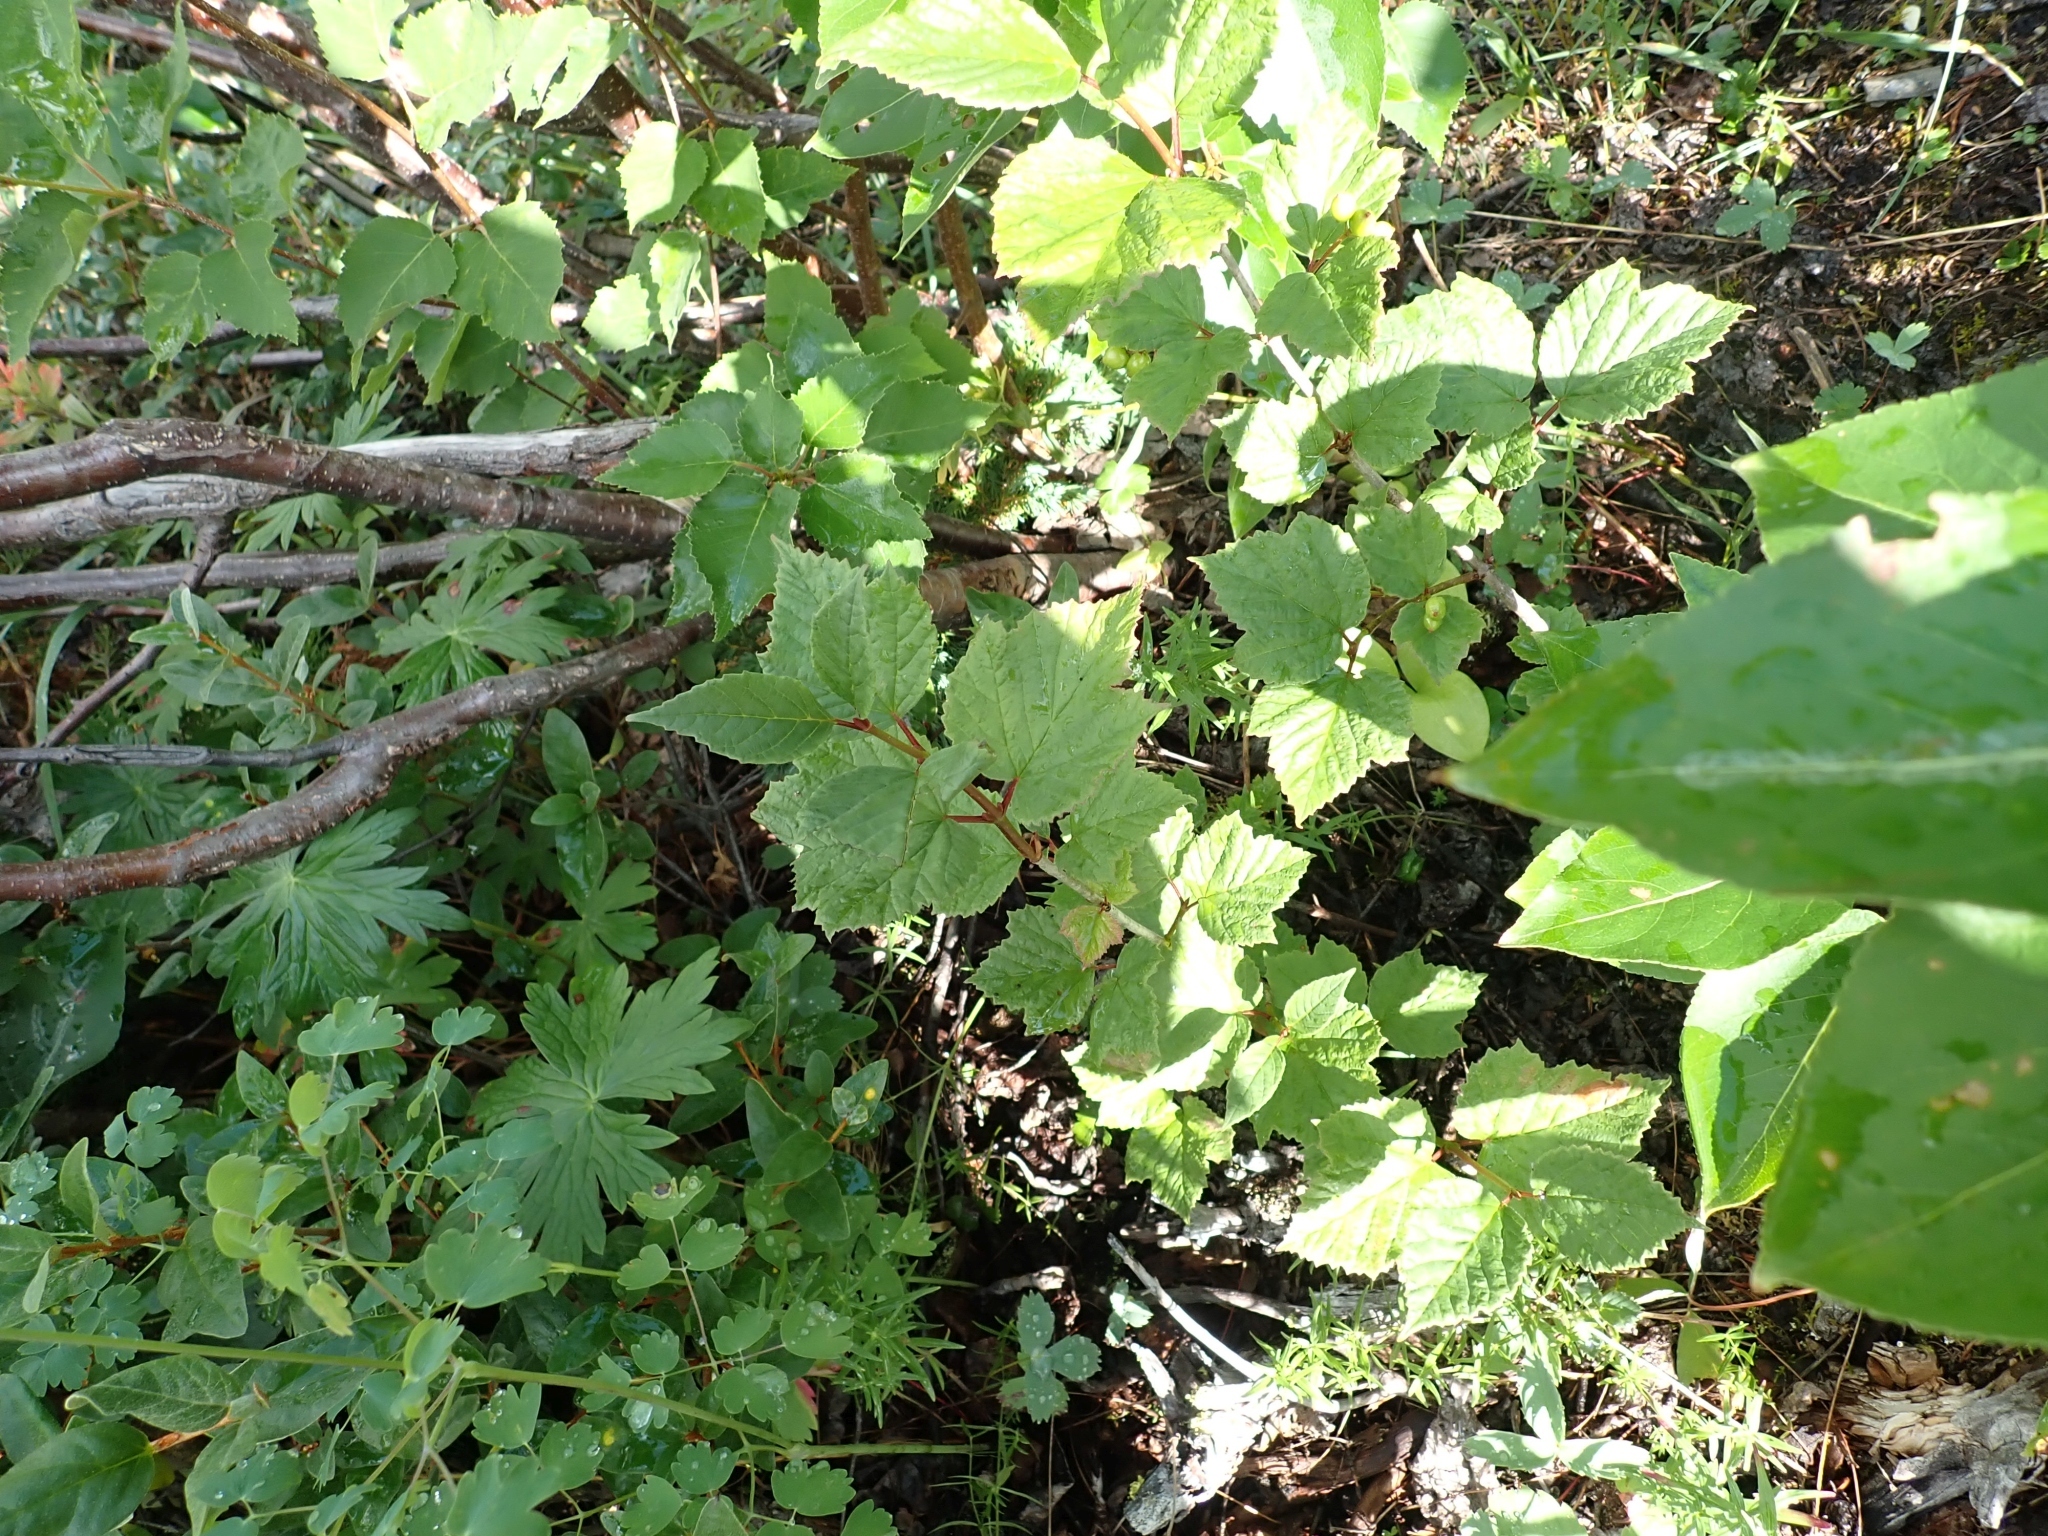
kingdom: Plantae
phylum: Tracheophyta
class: Magnoliopsida
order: Dipsacales
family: Viburnaceae
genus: Viburnum
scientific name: Viburnum edule
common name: Mooseberry
